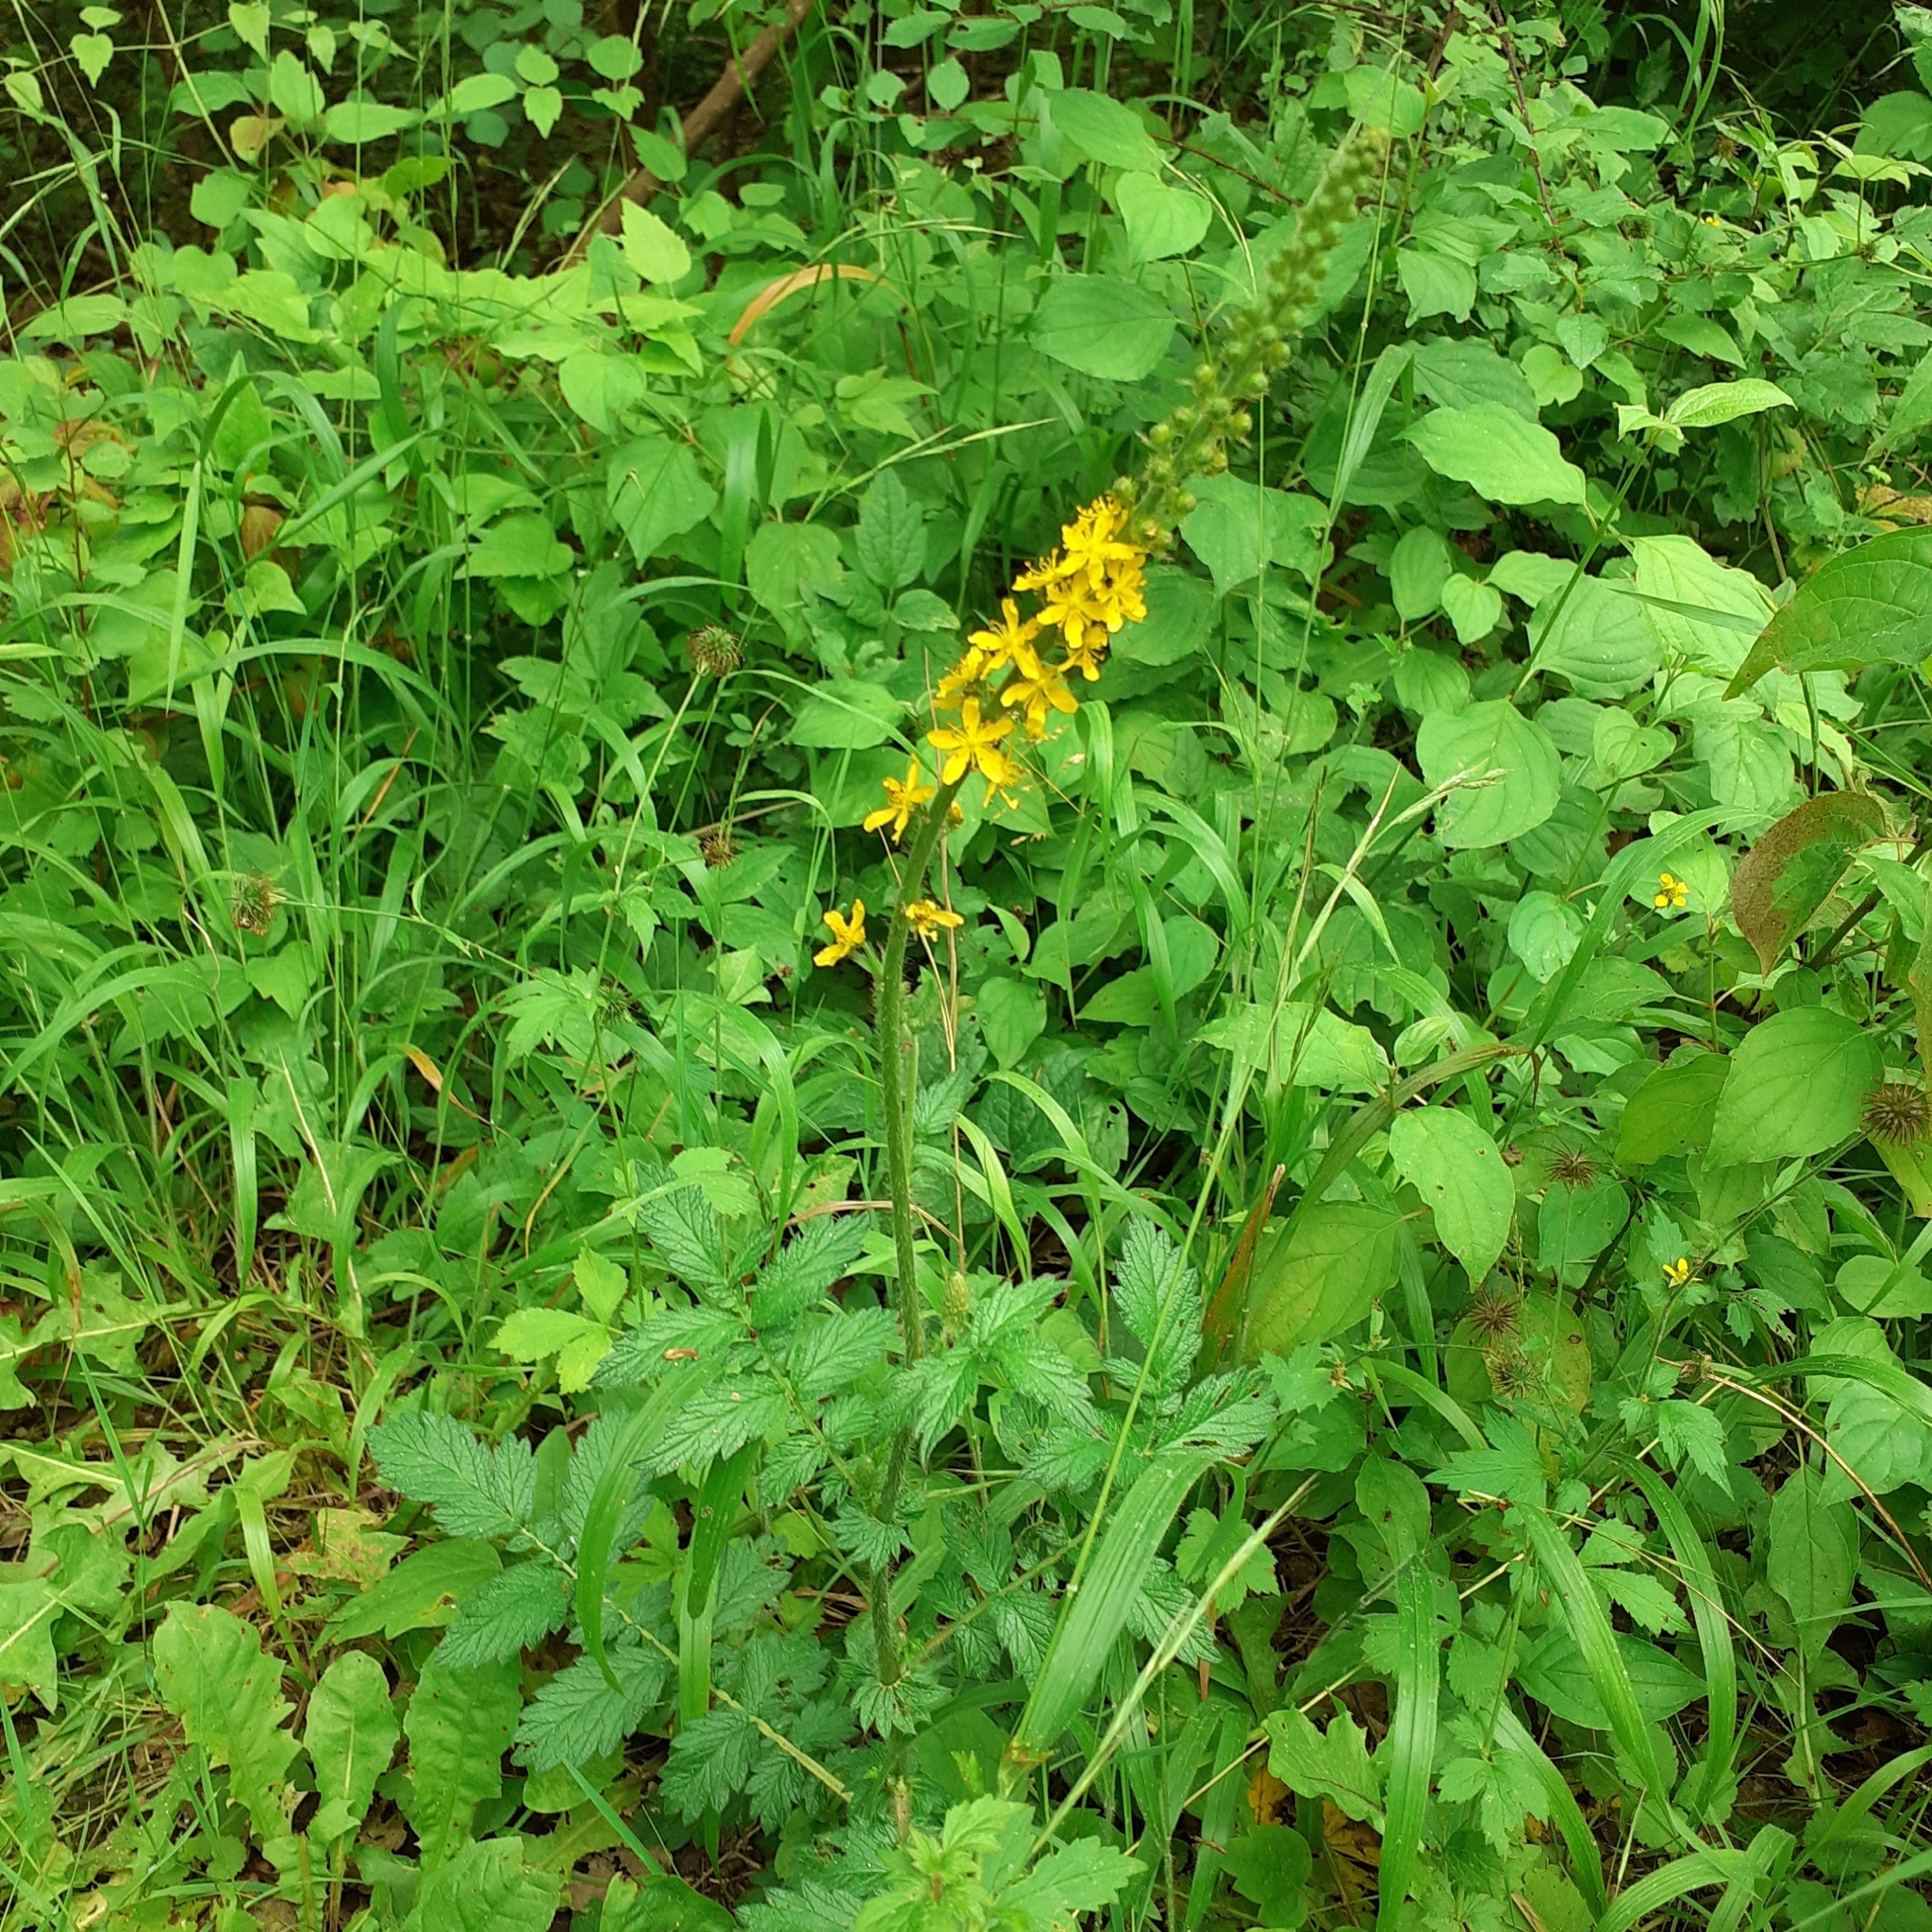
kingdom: Plantae
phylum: Tracheophyta
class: Magnoliopsida
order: Rosales
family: Rosaceae
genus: Agrimonia
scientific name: Agrimonia eupatoria
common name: Agrimony
